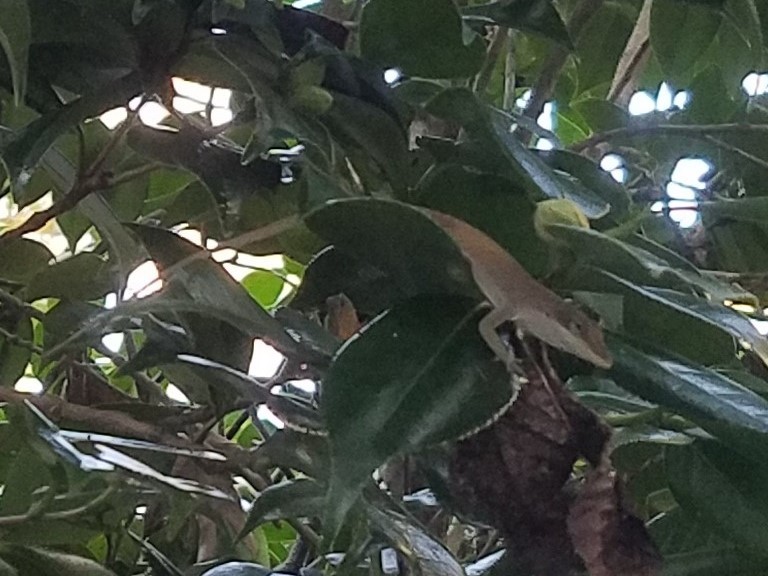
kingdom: Animalia
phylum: Chordata
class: Squamata
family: Dactyloidae
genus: Anolis
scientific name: Anolis carolinensis
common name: Green anole
